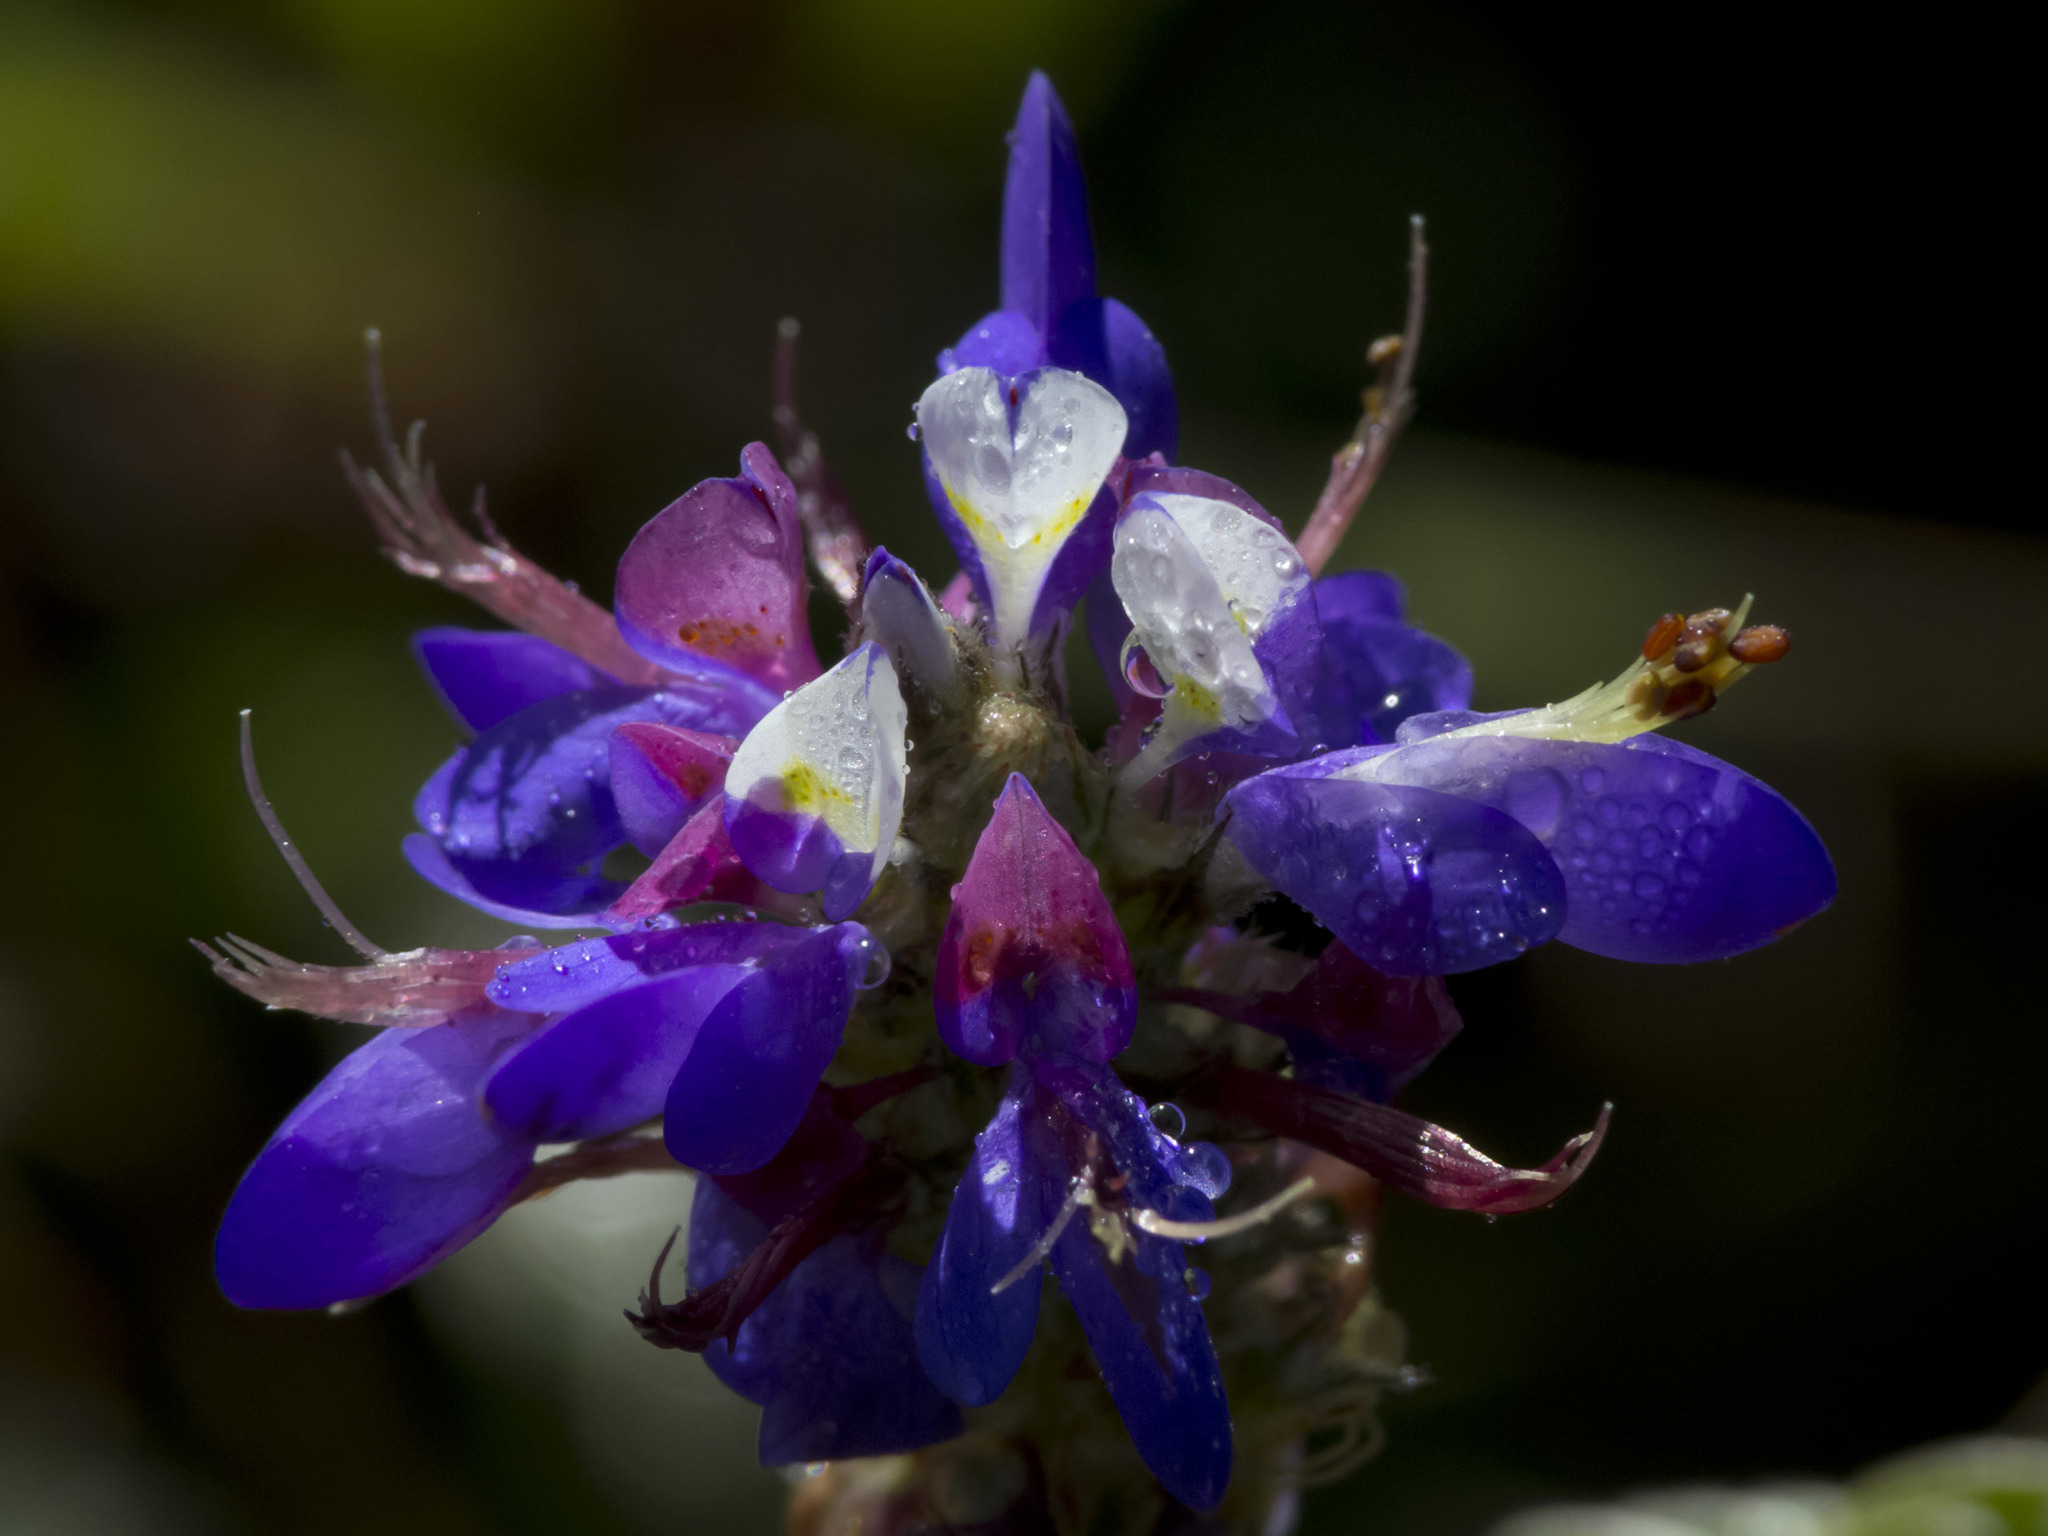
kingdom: Plantae
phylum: Tracheophyta
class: Magnoliopsida
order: Fabales
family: Fabaceae
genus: Dalea
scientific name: Dalea cuatrecasasii
